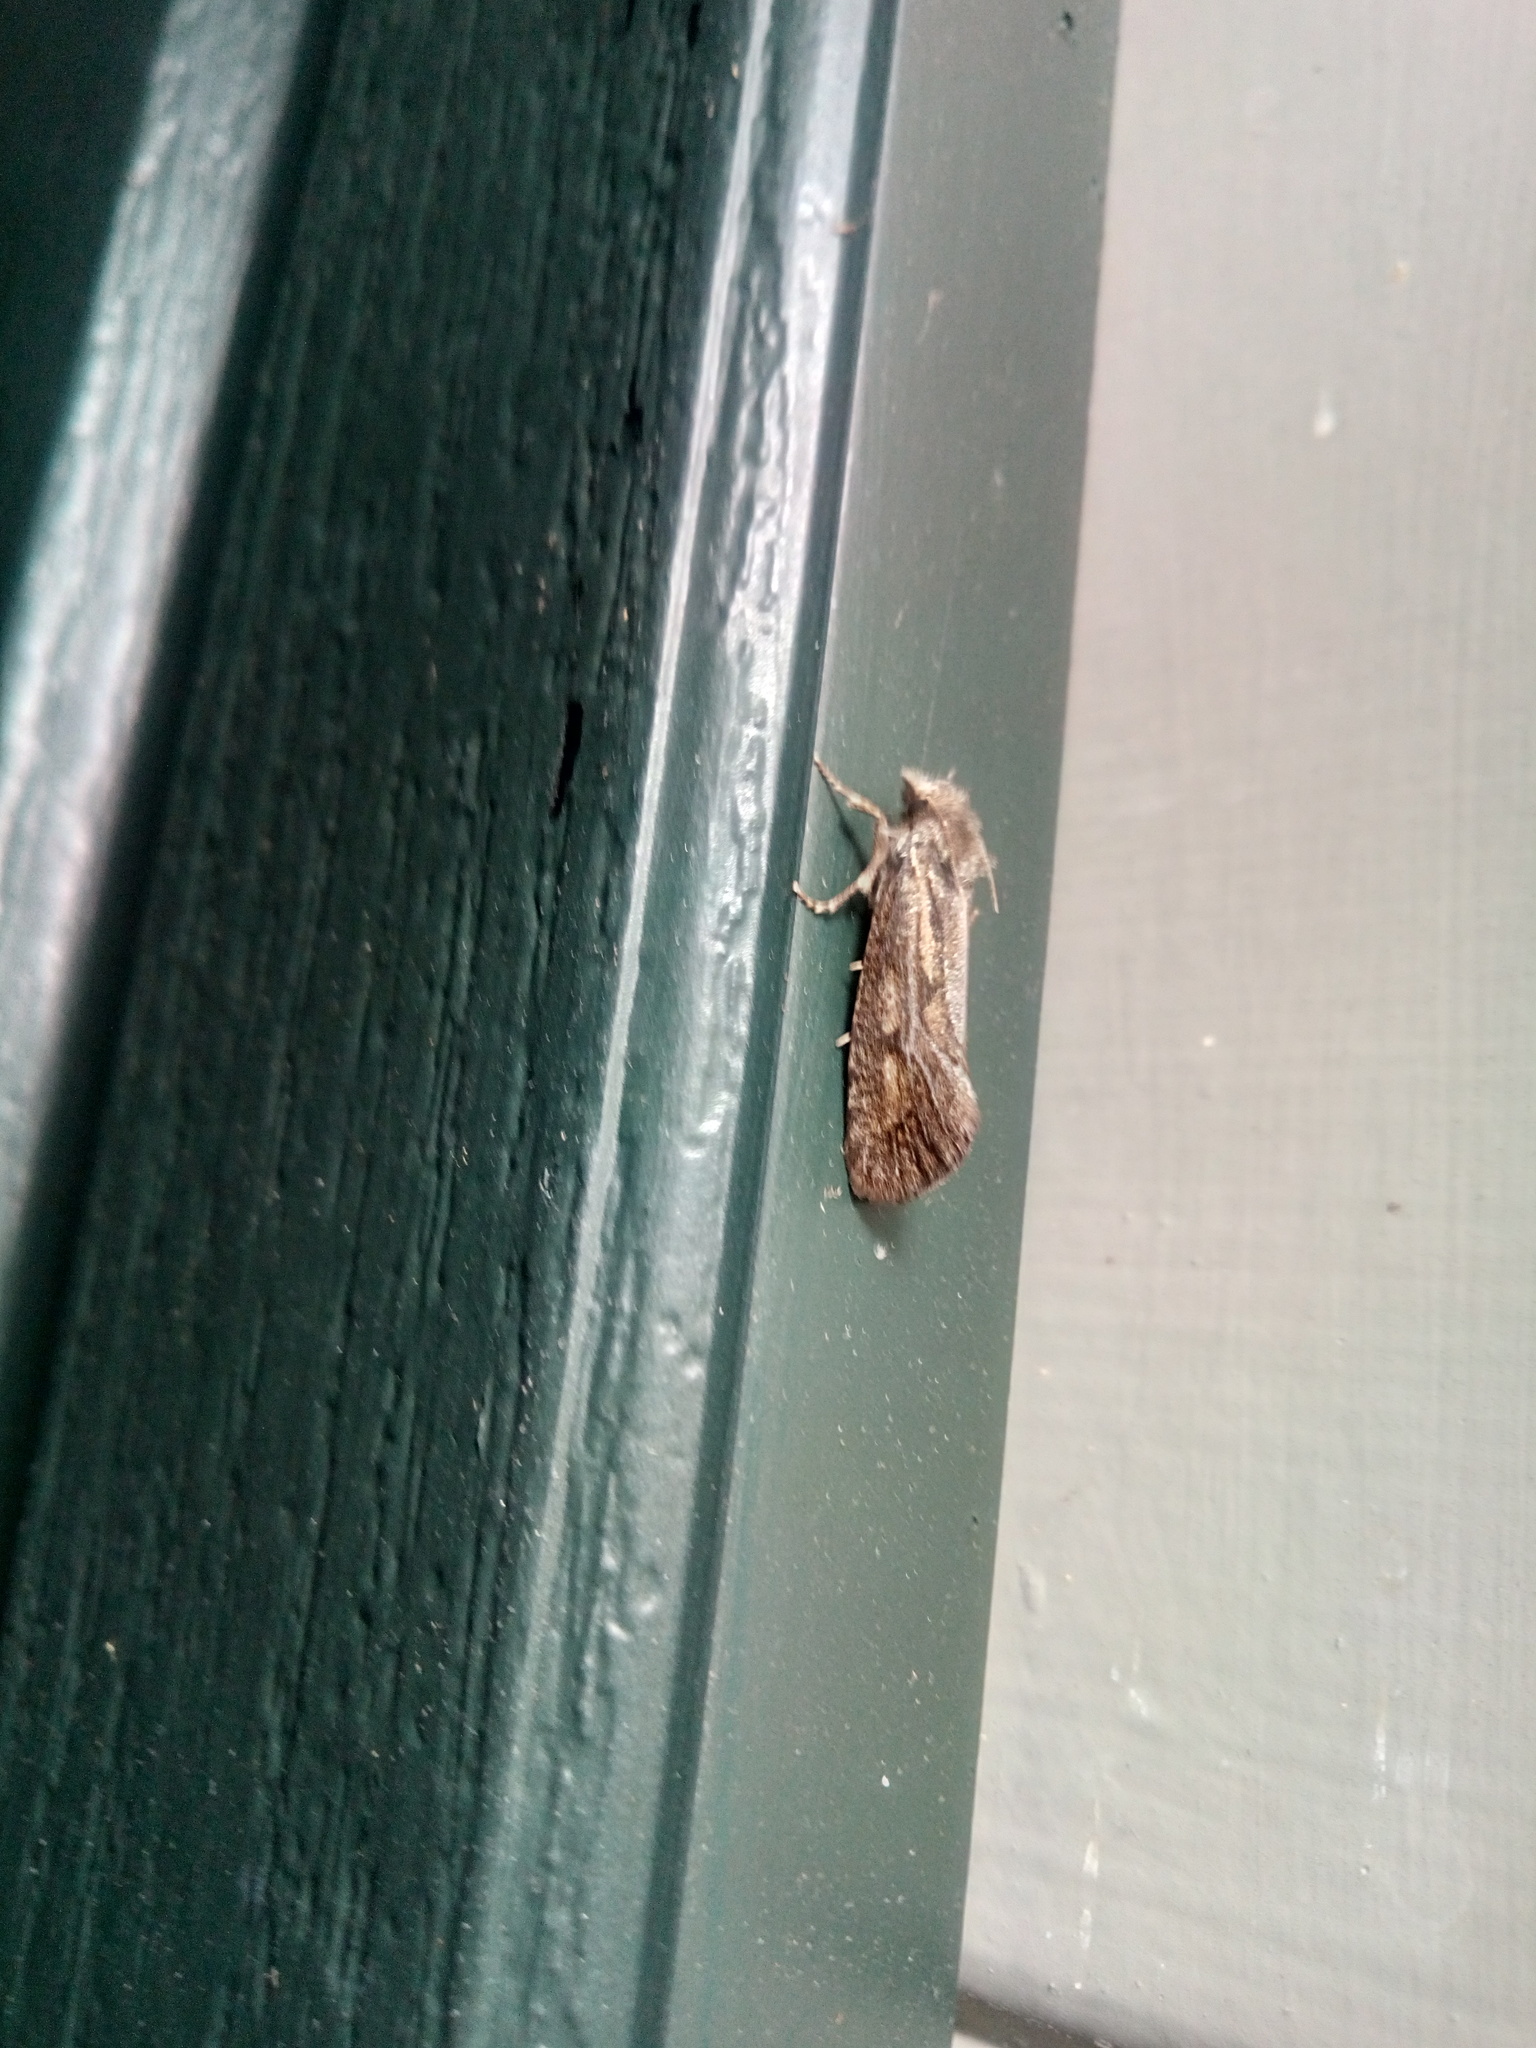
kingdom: Animalia
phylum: Arthropoda
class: Insecta
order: Lepidoptera
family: Tineidae
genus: Acrolophus
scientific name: Acrolophus popeanella
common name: Clemens' grass tubeworm moth
